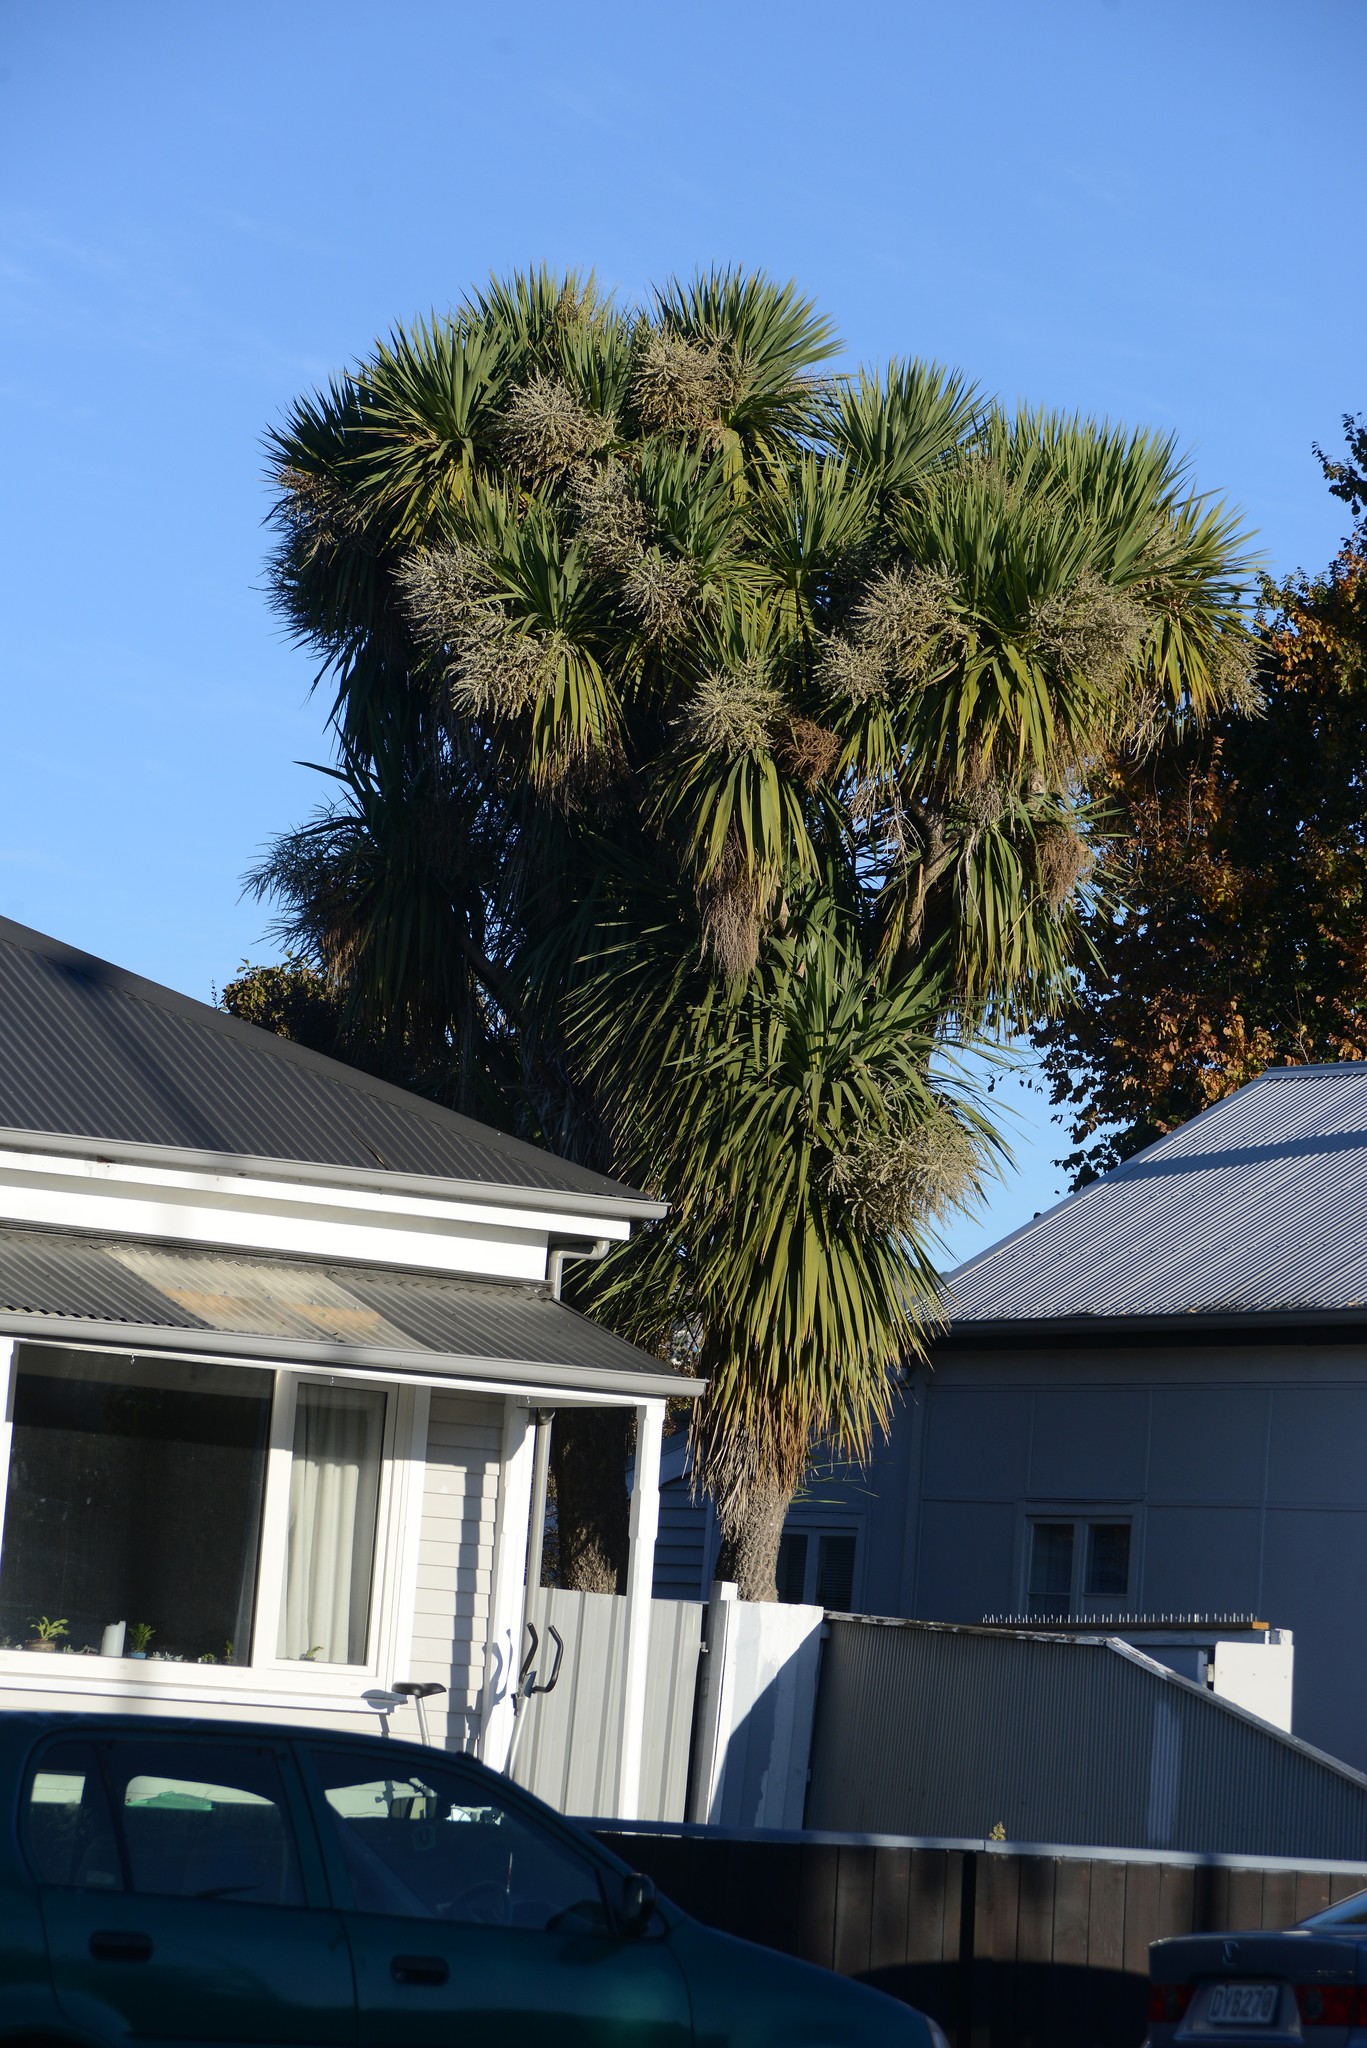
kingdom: Plantae
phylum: Tracheophyta
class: Liliopsida
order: Asparagales
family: Asparagaceae
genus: Cordyline
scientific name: Cordyline australis
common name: Cabbage-palm
